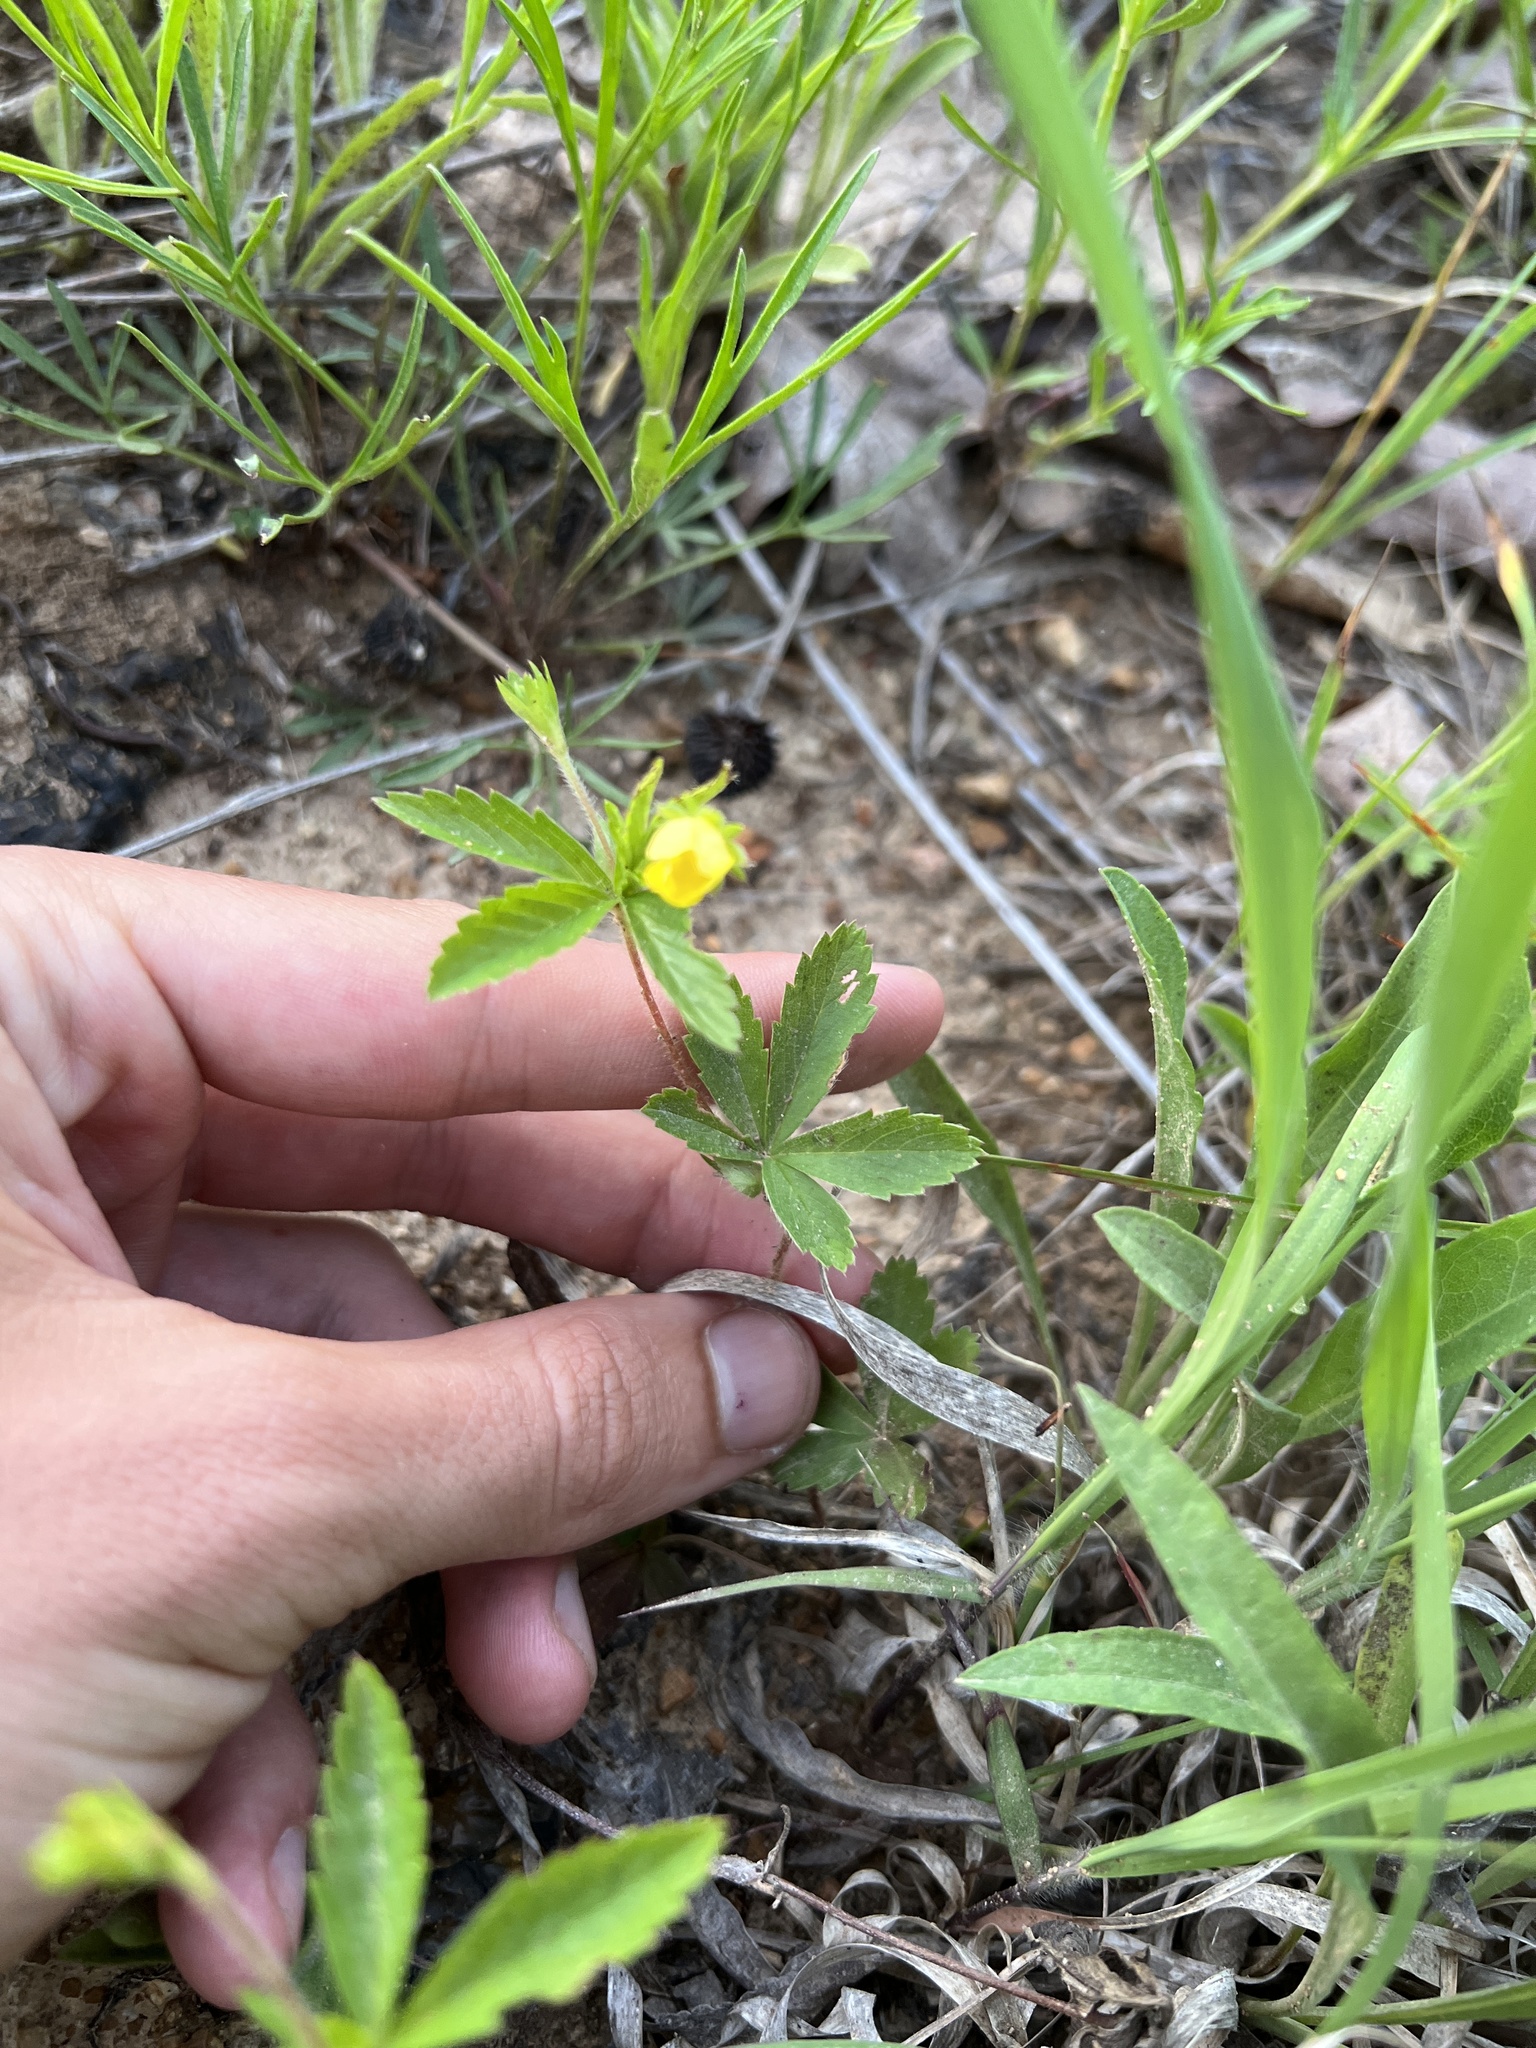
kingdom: Plantae
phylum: Tracheophyta
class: Magnoliopsida
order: Rosales
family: Rosaceae
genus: Potentilla
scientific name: Potentilla simplex
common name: Old field cinquefoil
